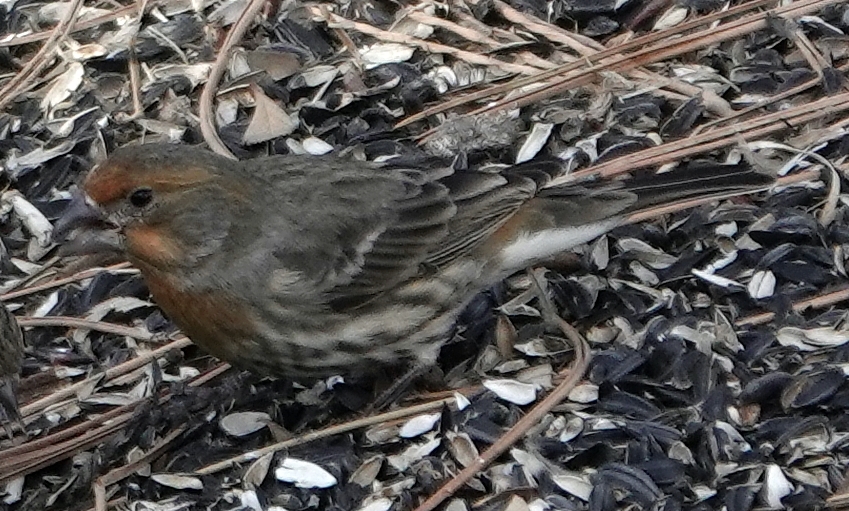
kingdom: Animalia
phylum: Chordata
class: Aves
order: Passeriformes
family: Fringillidae
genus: Haemorhous
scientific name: Haemorhous mexicanus
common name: House finch
